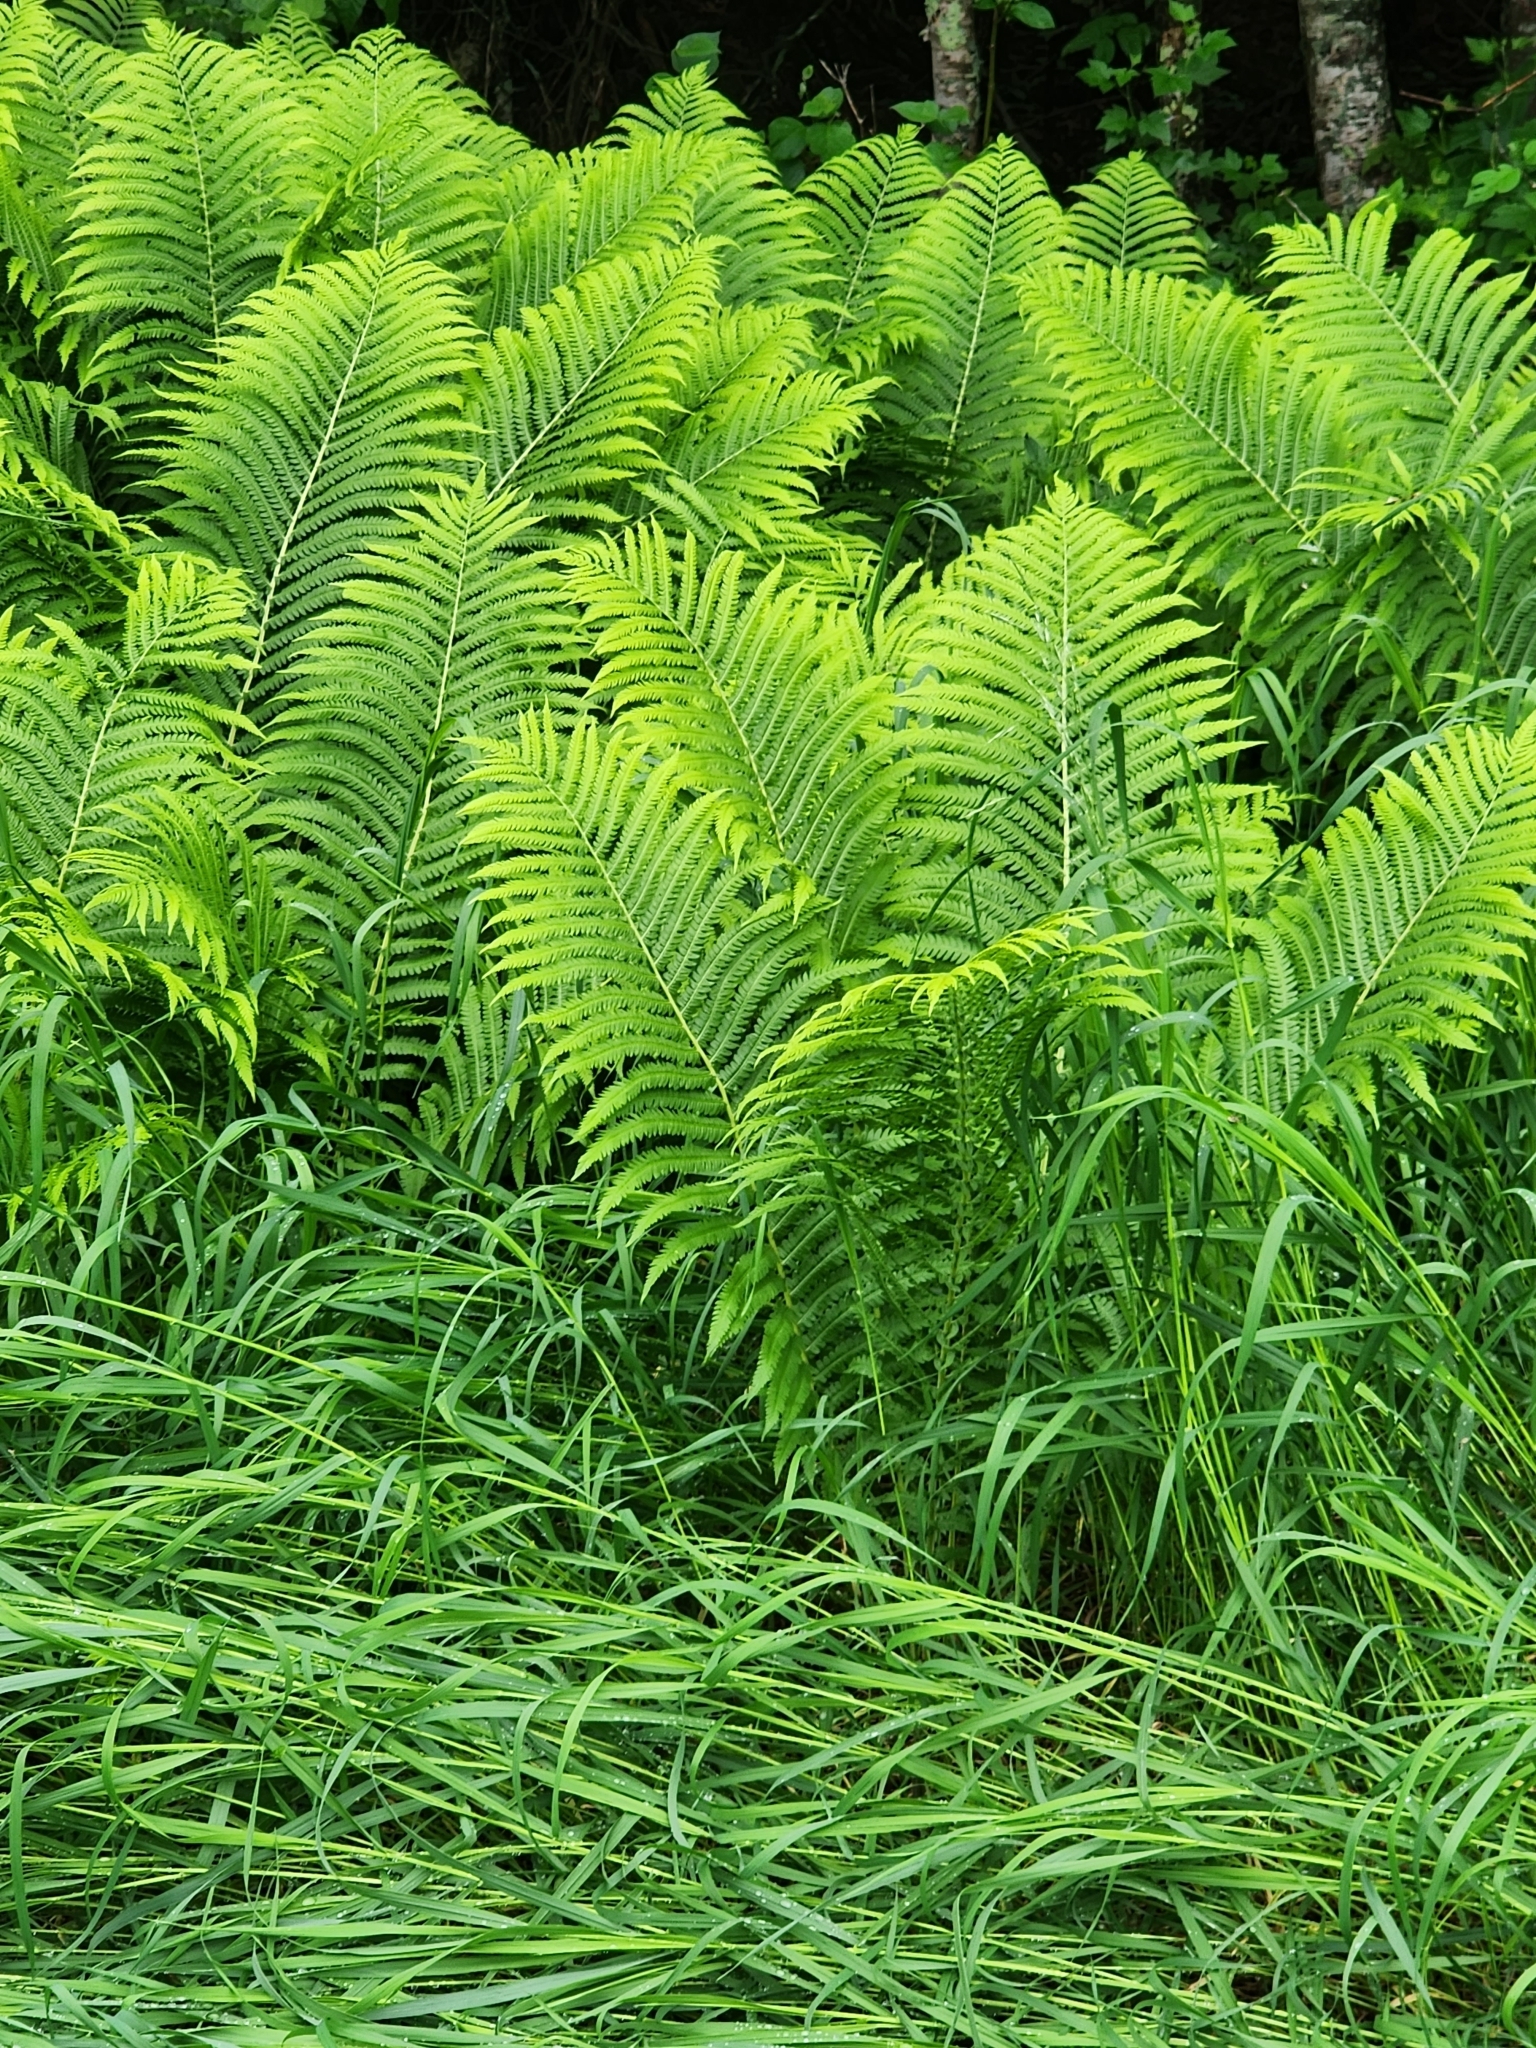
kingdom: Plantae
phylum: Tracheophyta
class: Polypodiopsida
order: Polypodiales
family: Onocleaceae
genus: Matteuccia
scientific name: Matteuccia struthiopteris
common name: Ostrich fern
